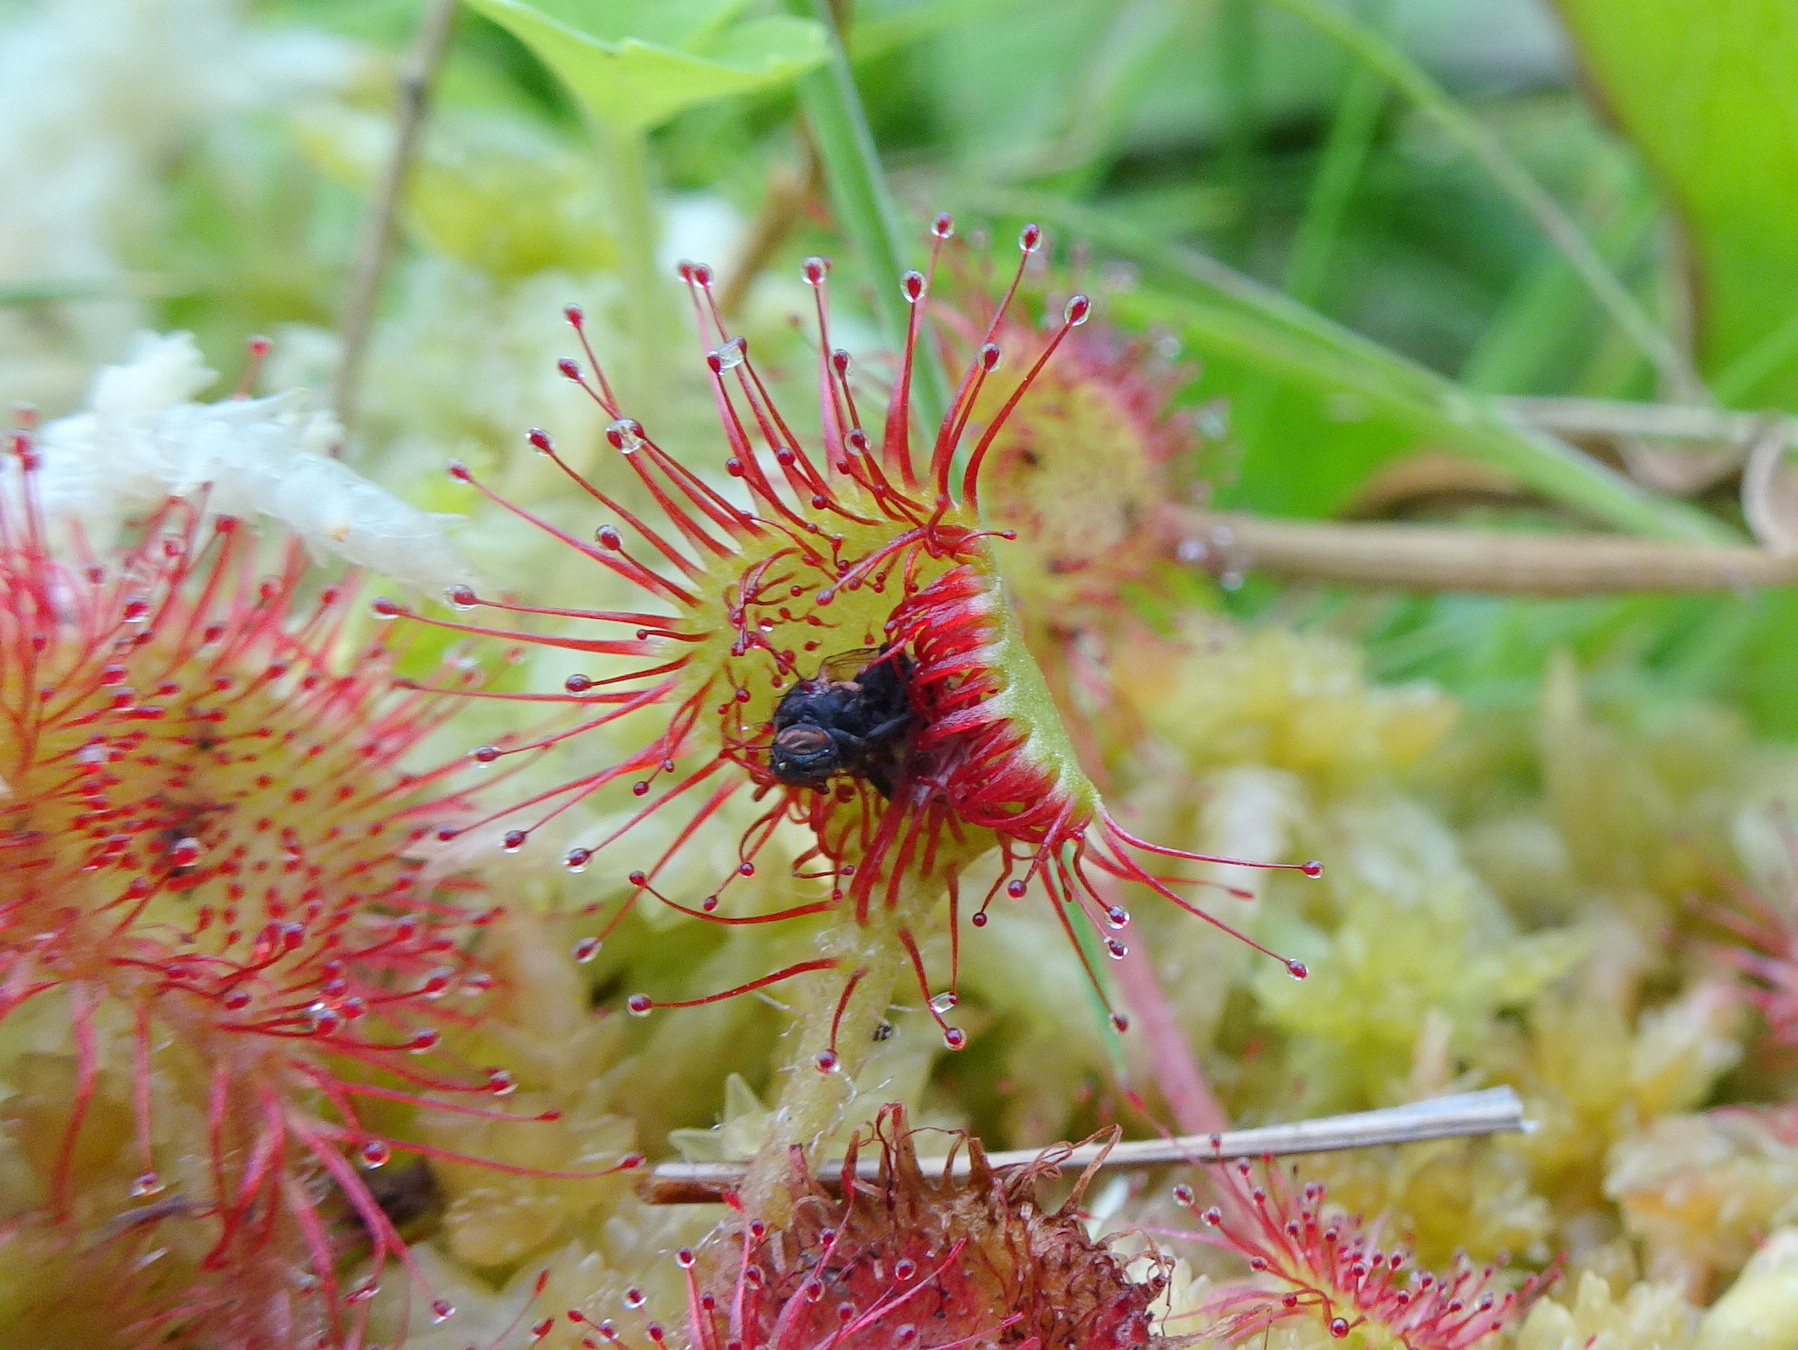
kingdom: Plantae
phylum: Tracheophyta
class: Magnoliopsida
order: Caryophyllales
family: Droseraceae
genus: Drosera
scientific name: Drosera rotundifolia
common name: Round-leaved sundew
